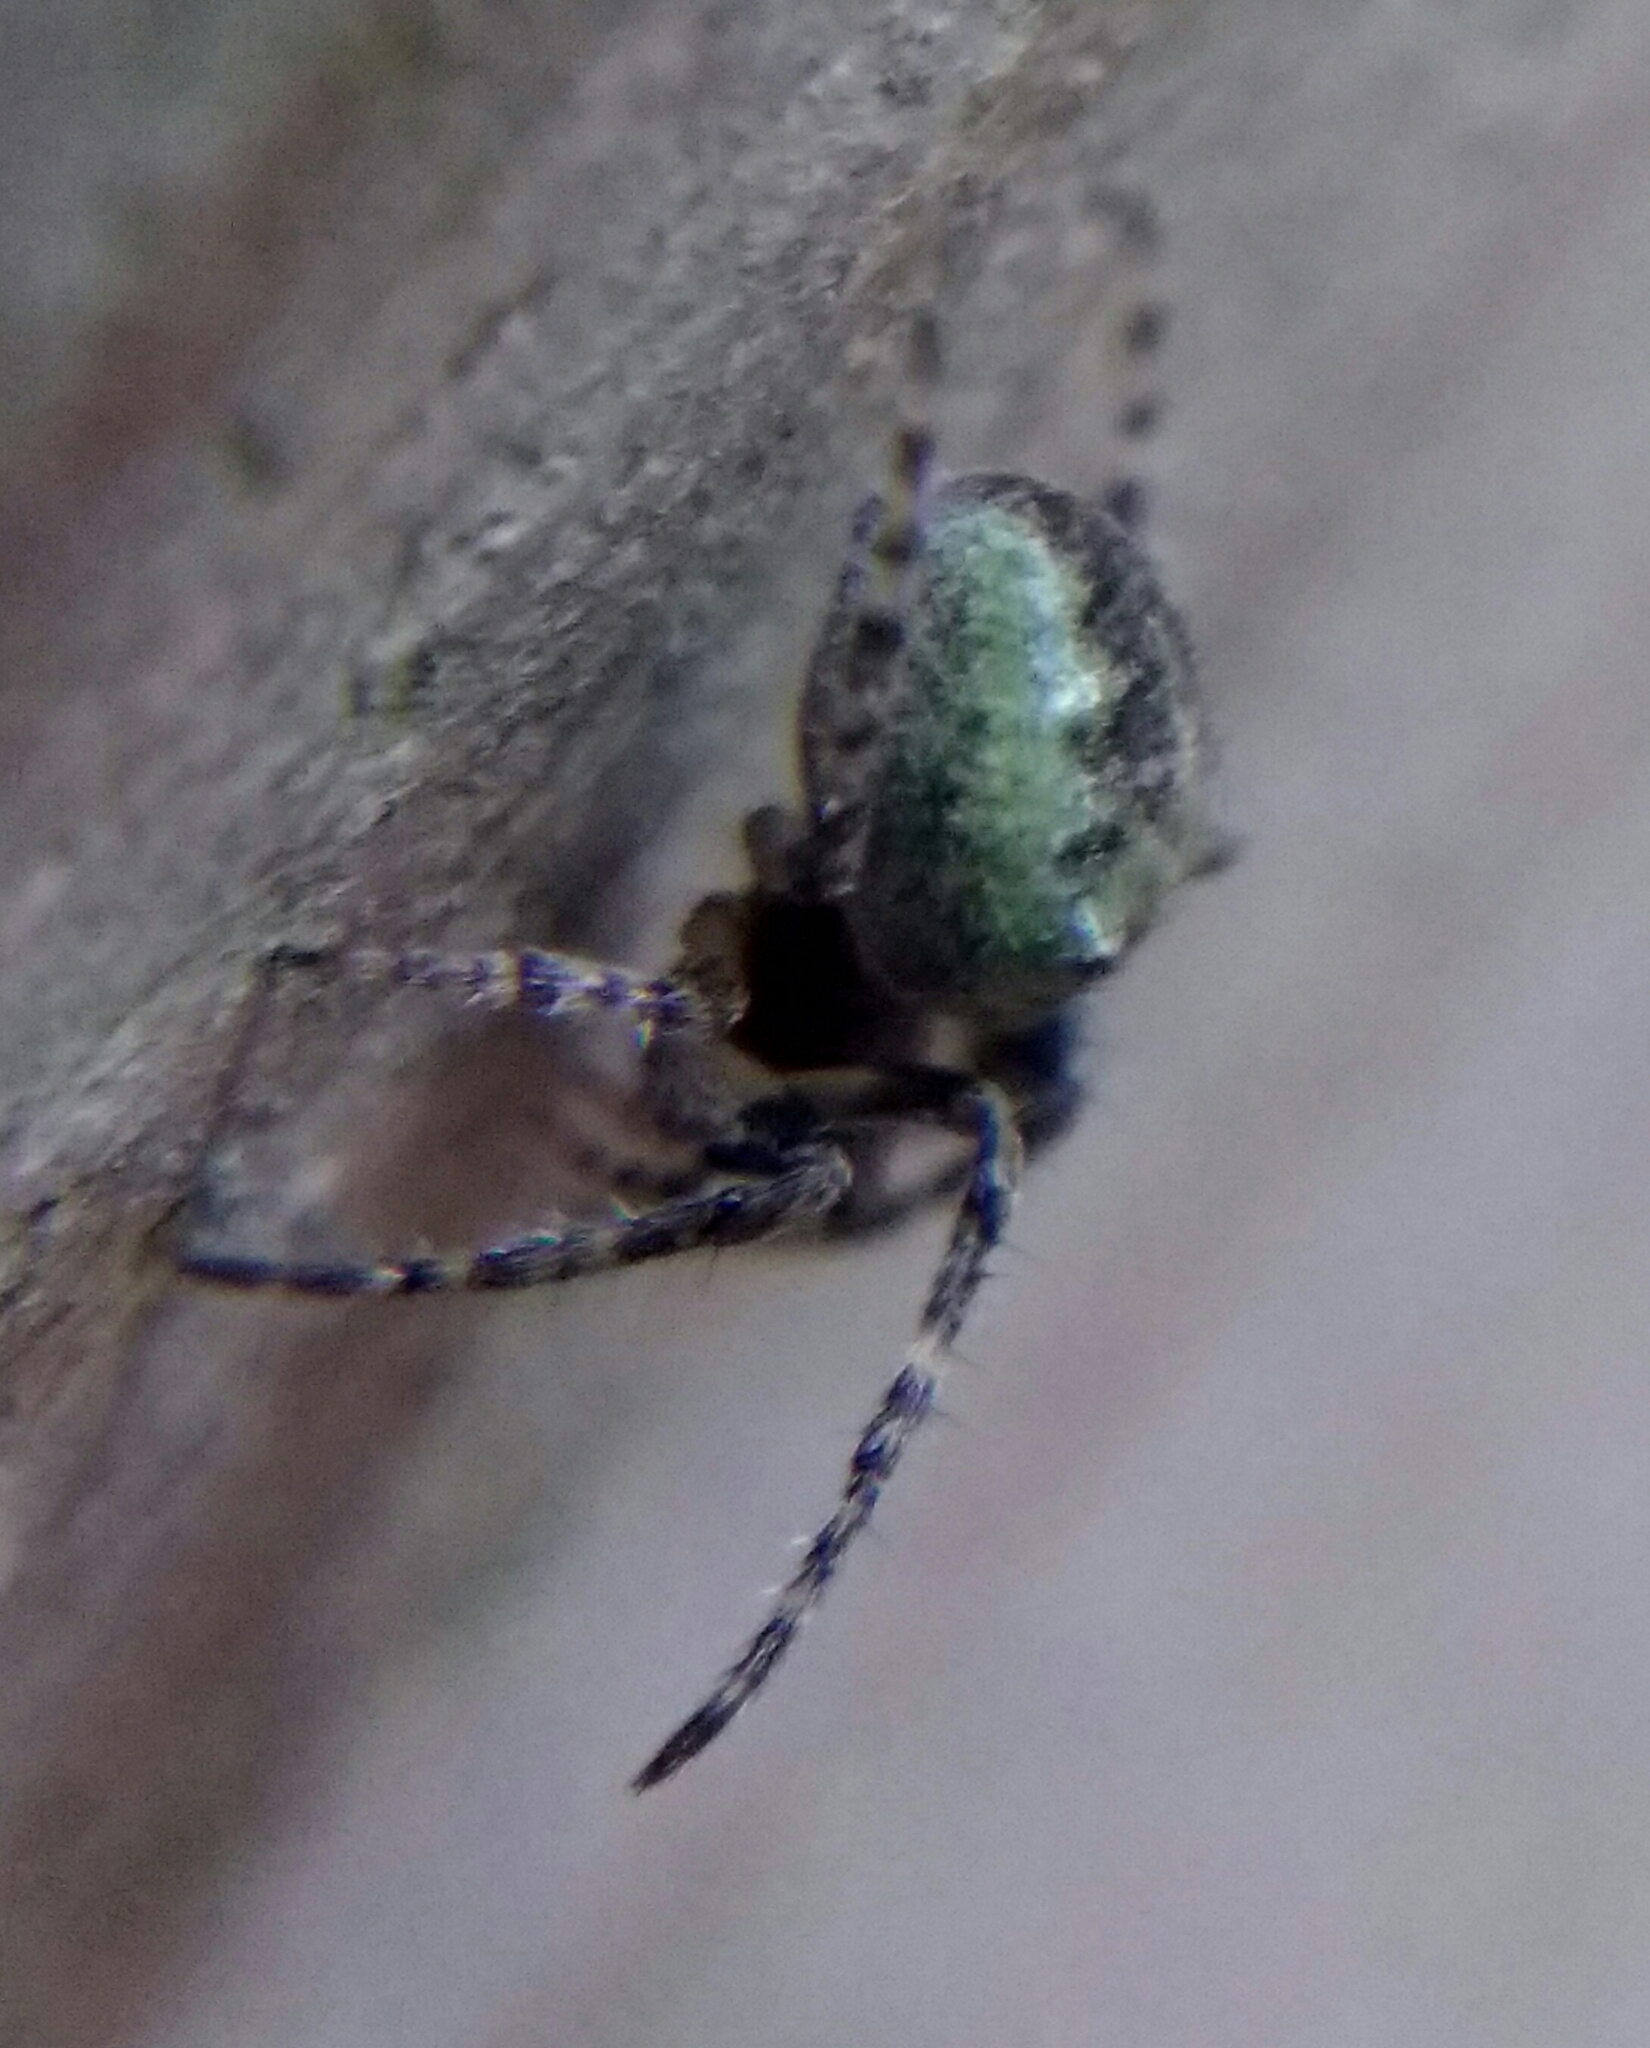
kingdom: Animalia
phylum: Arthropoda
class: Arachnida
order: Araneae
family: Araneidae
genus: Gibbaranea
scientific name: Gibbaranea gibbosa
